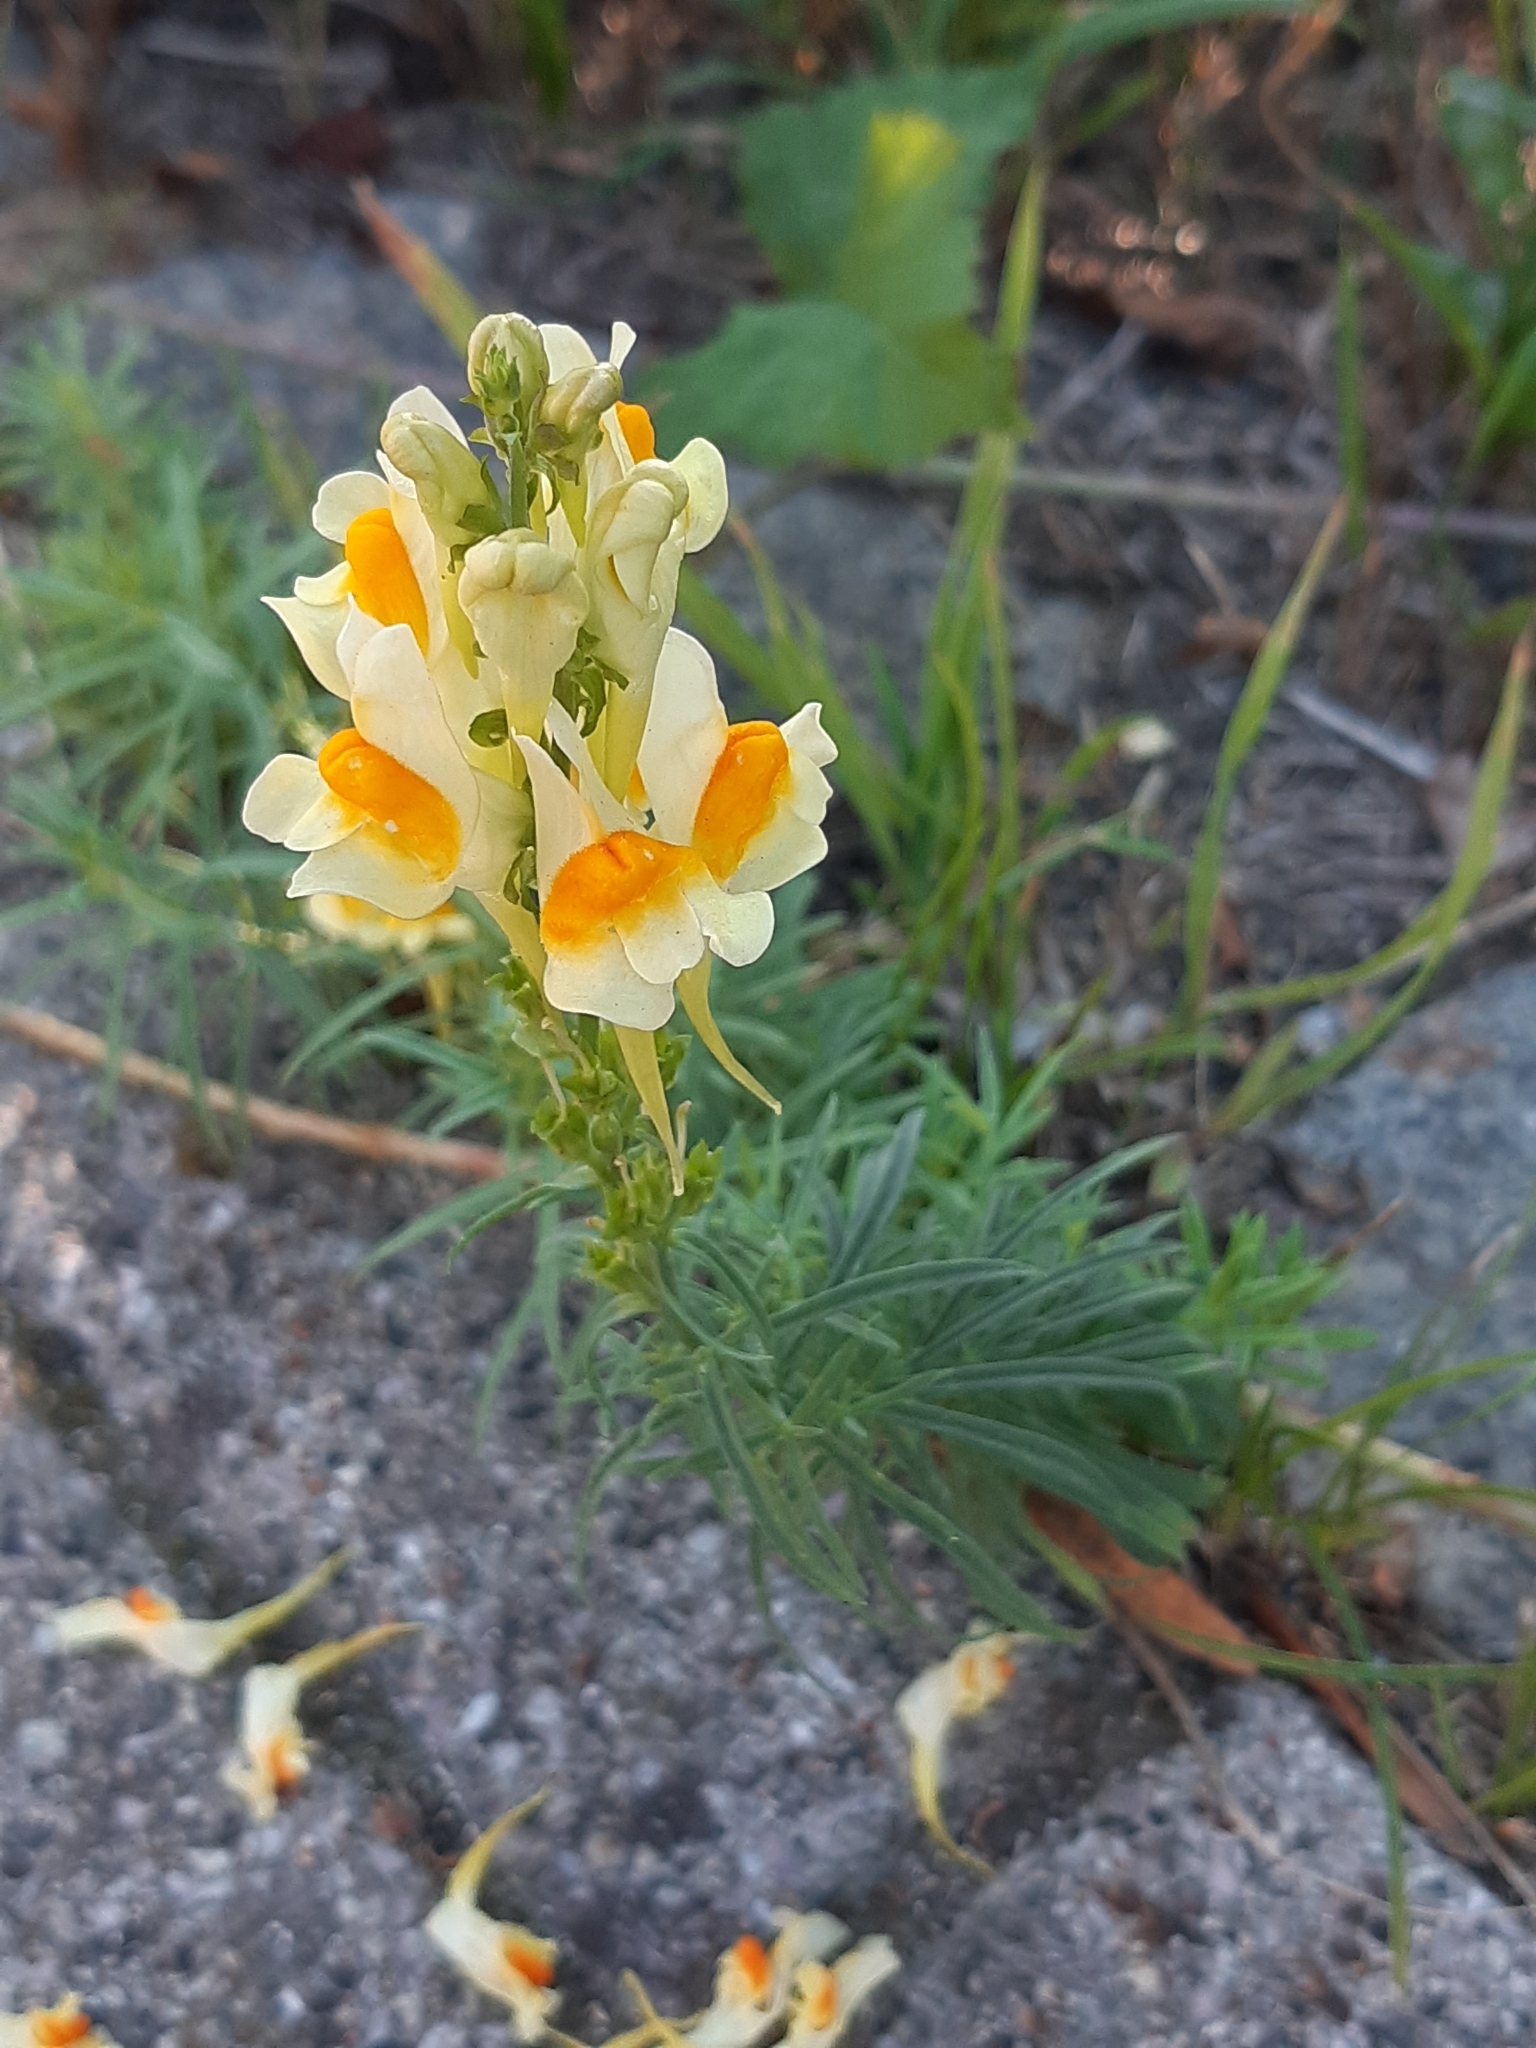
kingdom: Plantae
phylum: Tracheophyta
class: Magnoliopsida
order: Lamiales
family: Plantaginaceae
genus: Linaria
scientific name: Linaria vulgaris
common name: Butter and eggs
